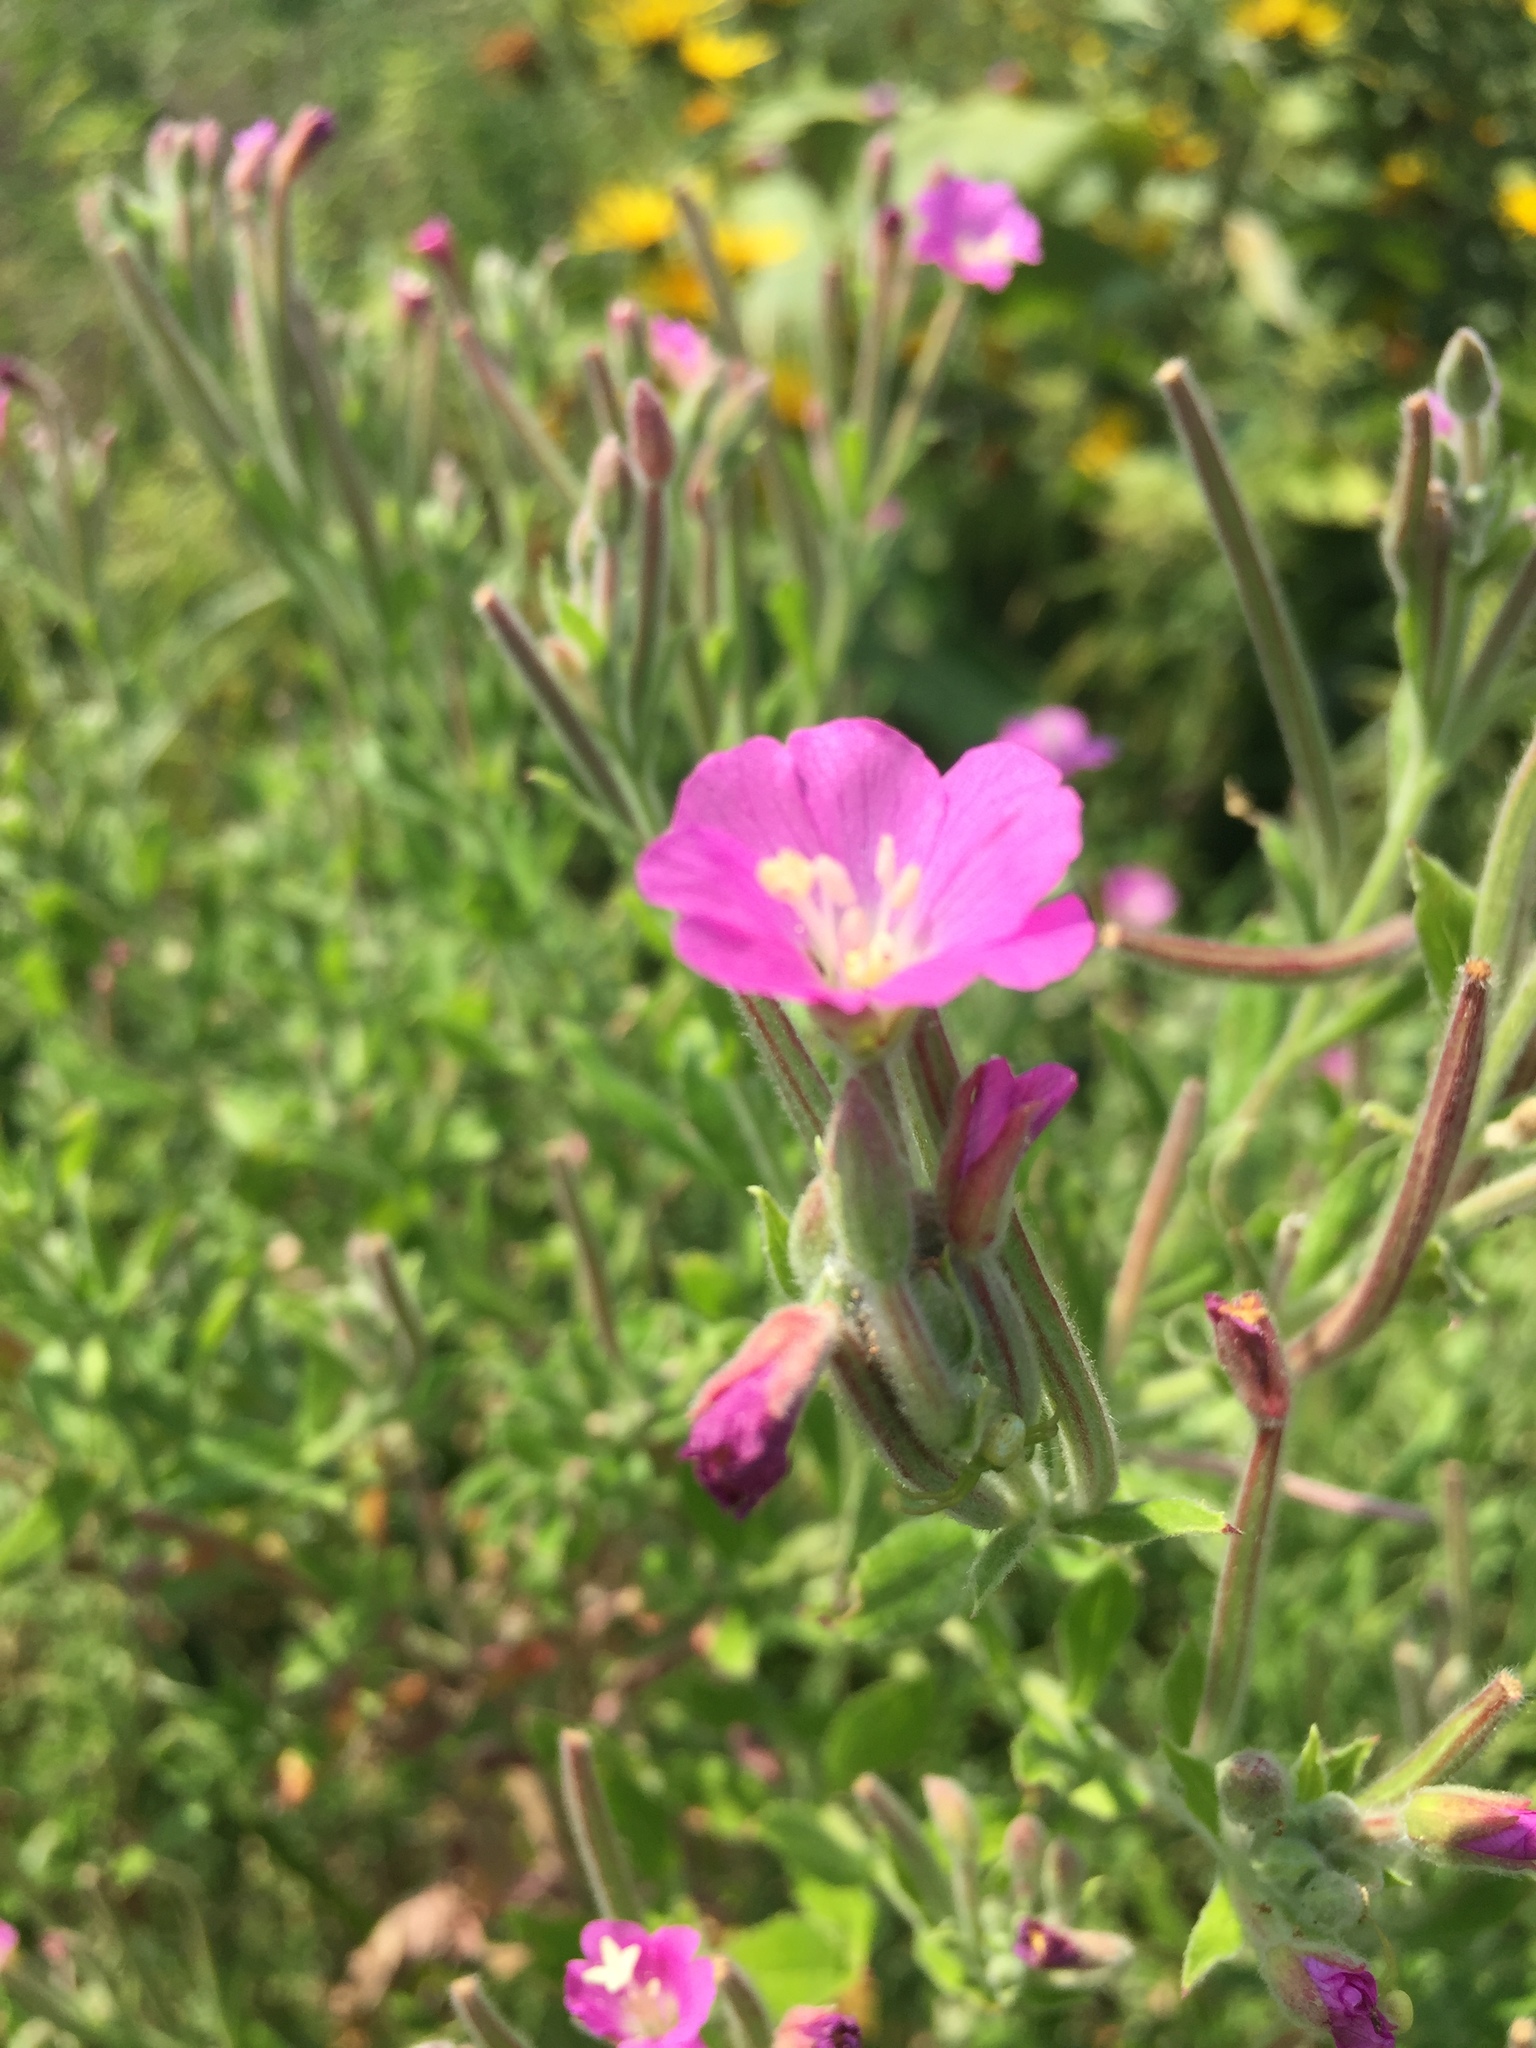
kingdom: Plantae
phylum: Tracheophyta
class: Magnoliopsida
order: Myrtales
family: Onagraceae
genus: Epilobium
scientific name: Epilobium hirsutum
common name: Great willowherb
